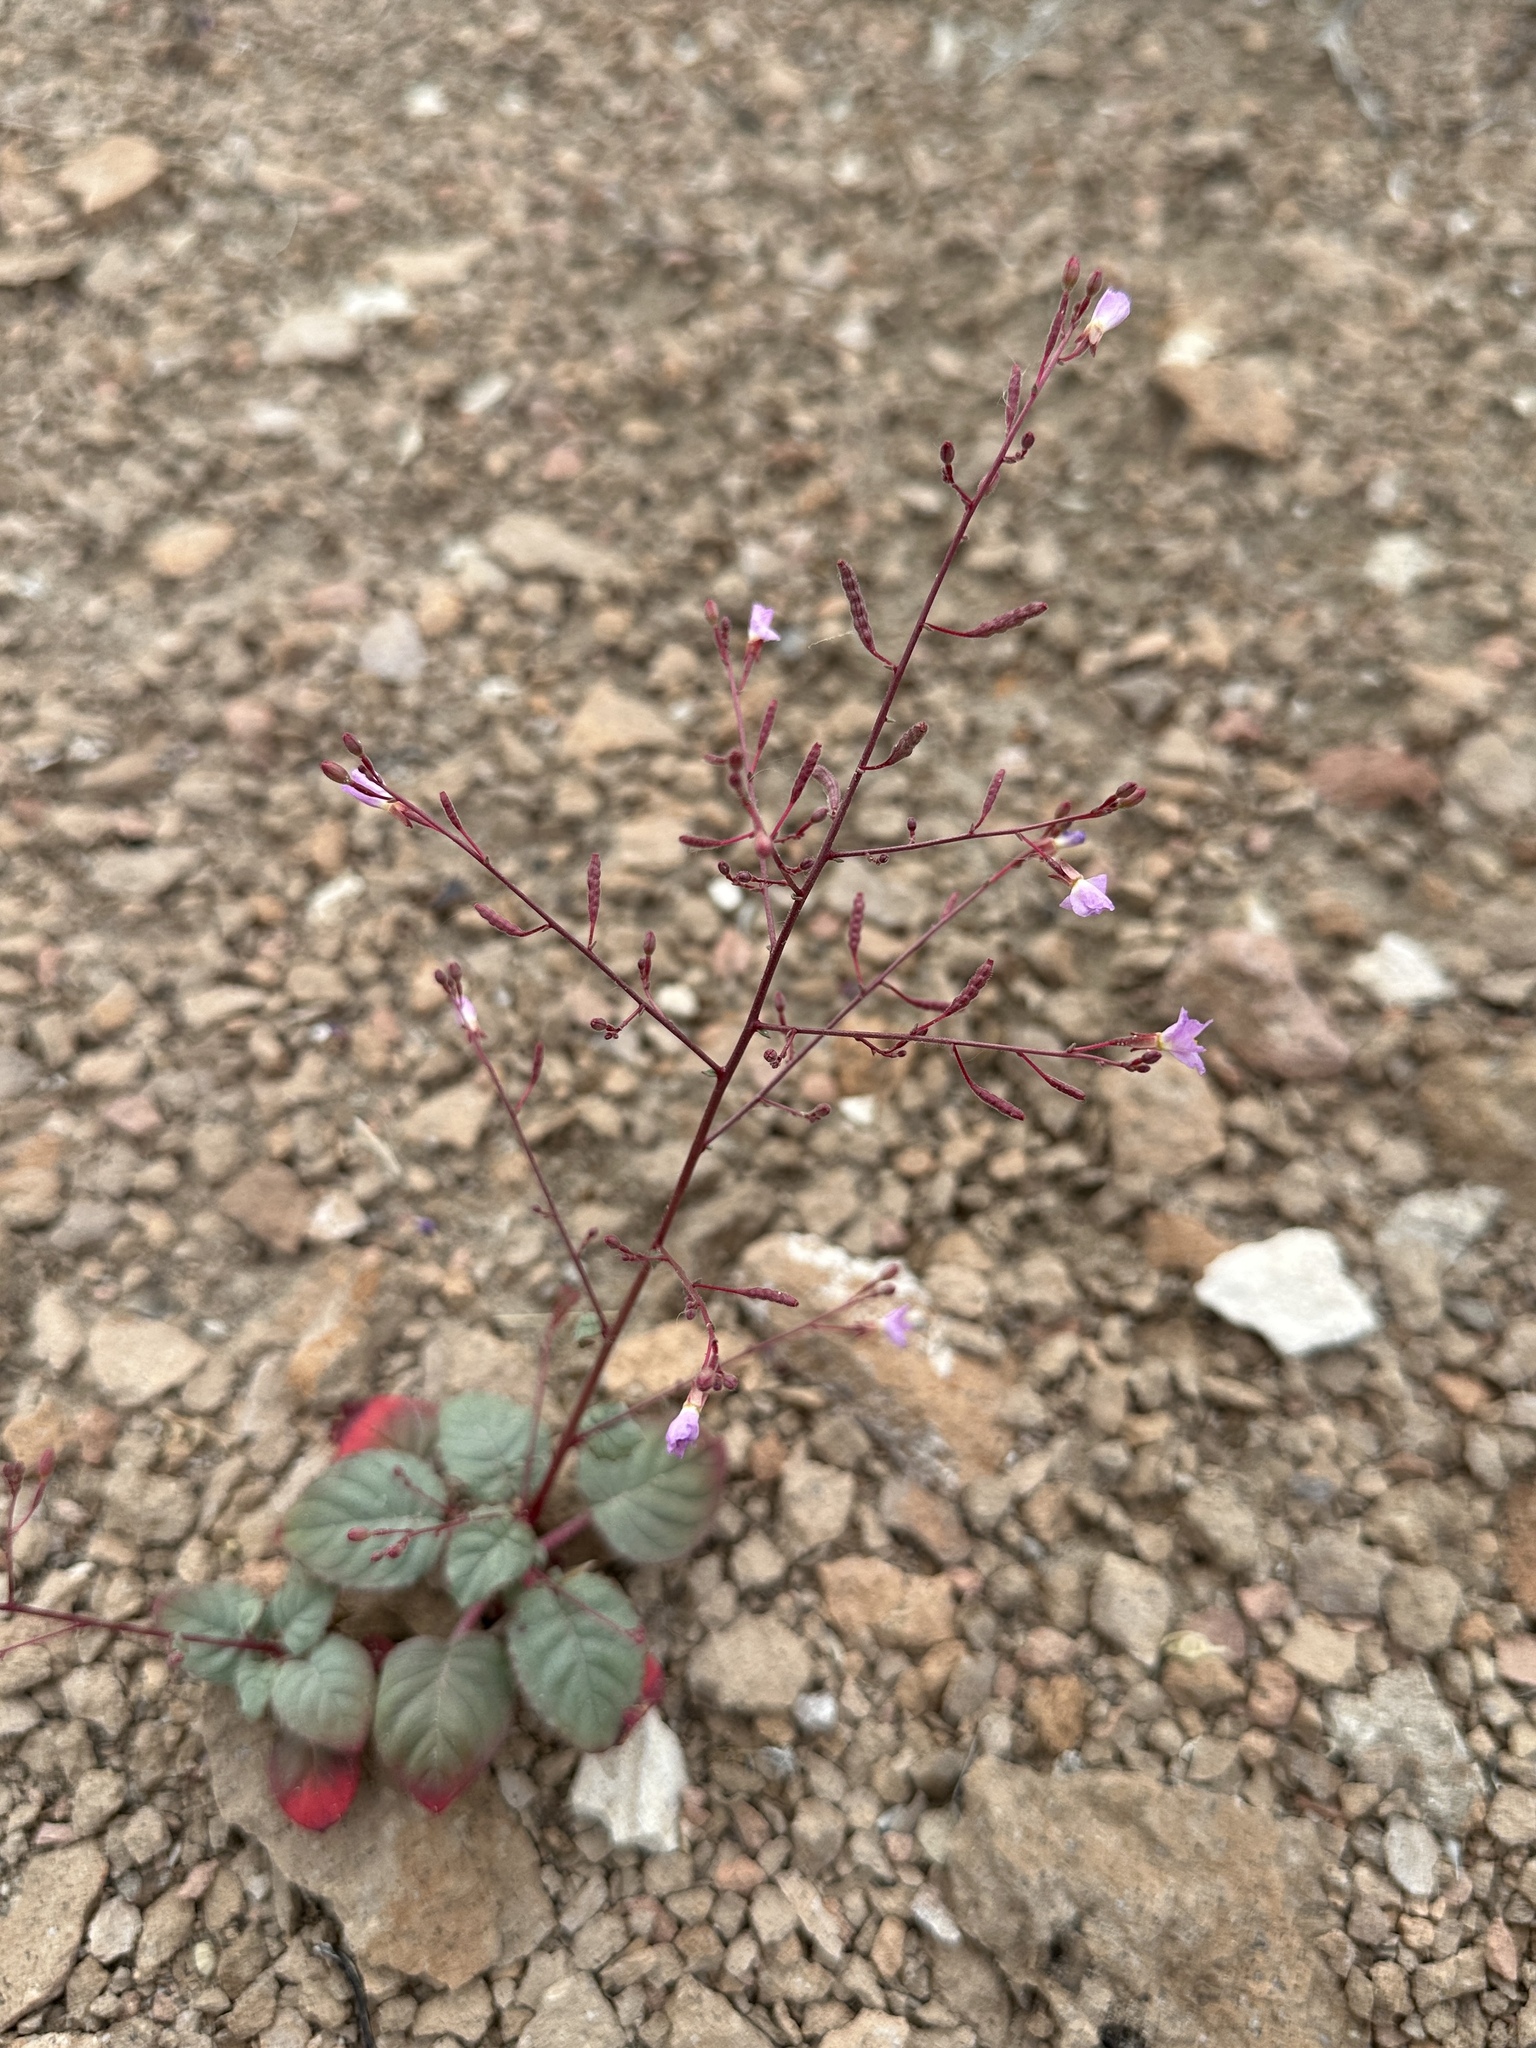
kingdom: Plantae
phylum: Tracheophyta
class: Magnoliopsida
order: Myrtales
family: Onagraceae
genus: Chylismia
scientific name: Chylismia heterochroma
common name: Shockley's evening primrose
